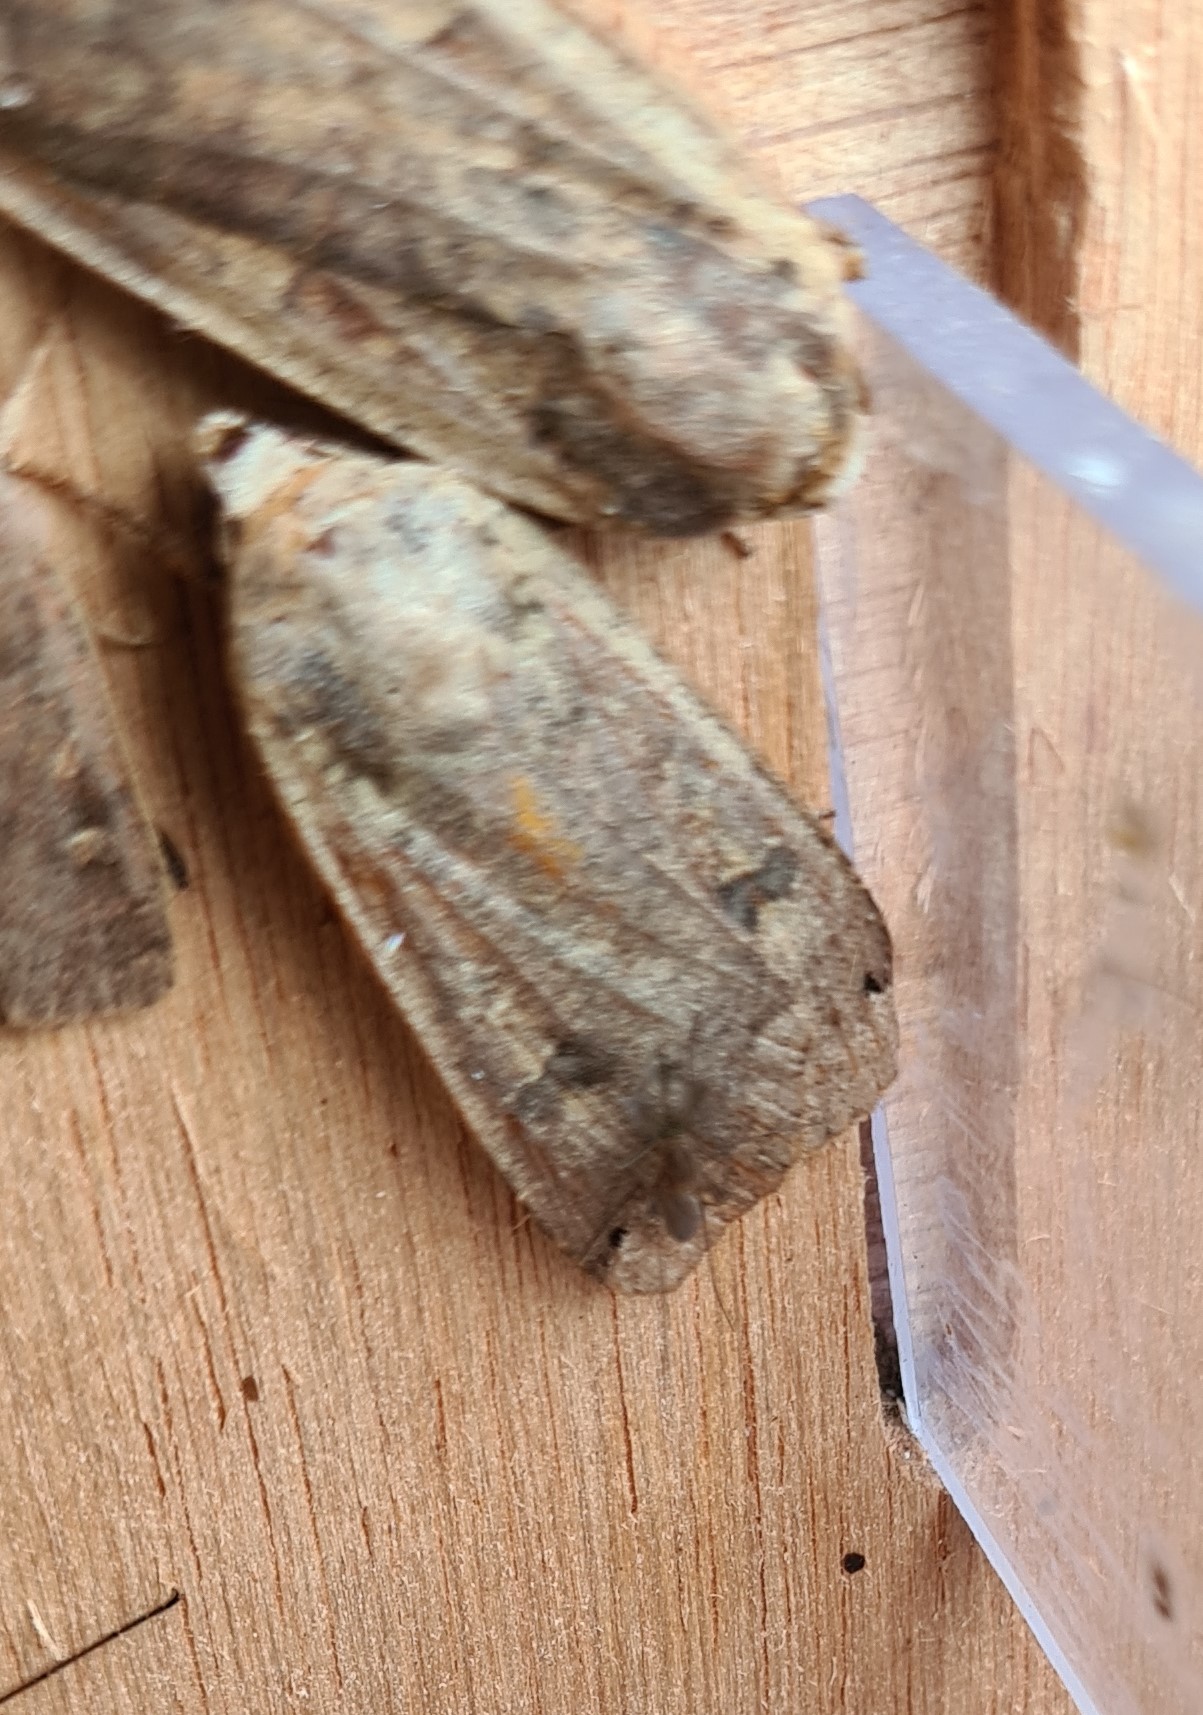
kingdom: Animalia
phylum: Arthropoda
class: Insecta
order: Lepidoptera
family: Noctuidae
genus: Noctua
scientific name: Noctua pronuba
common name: Large yellow underwing
